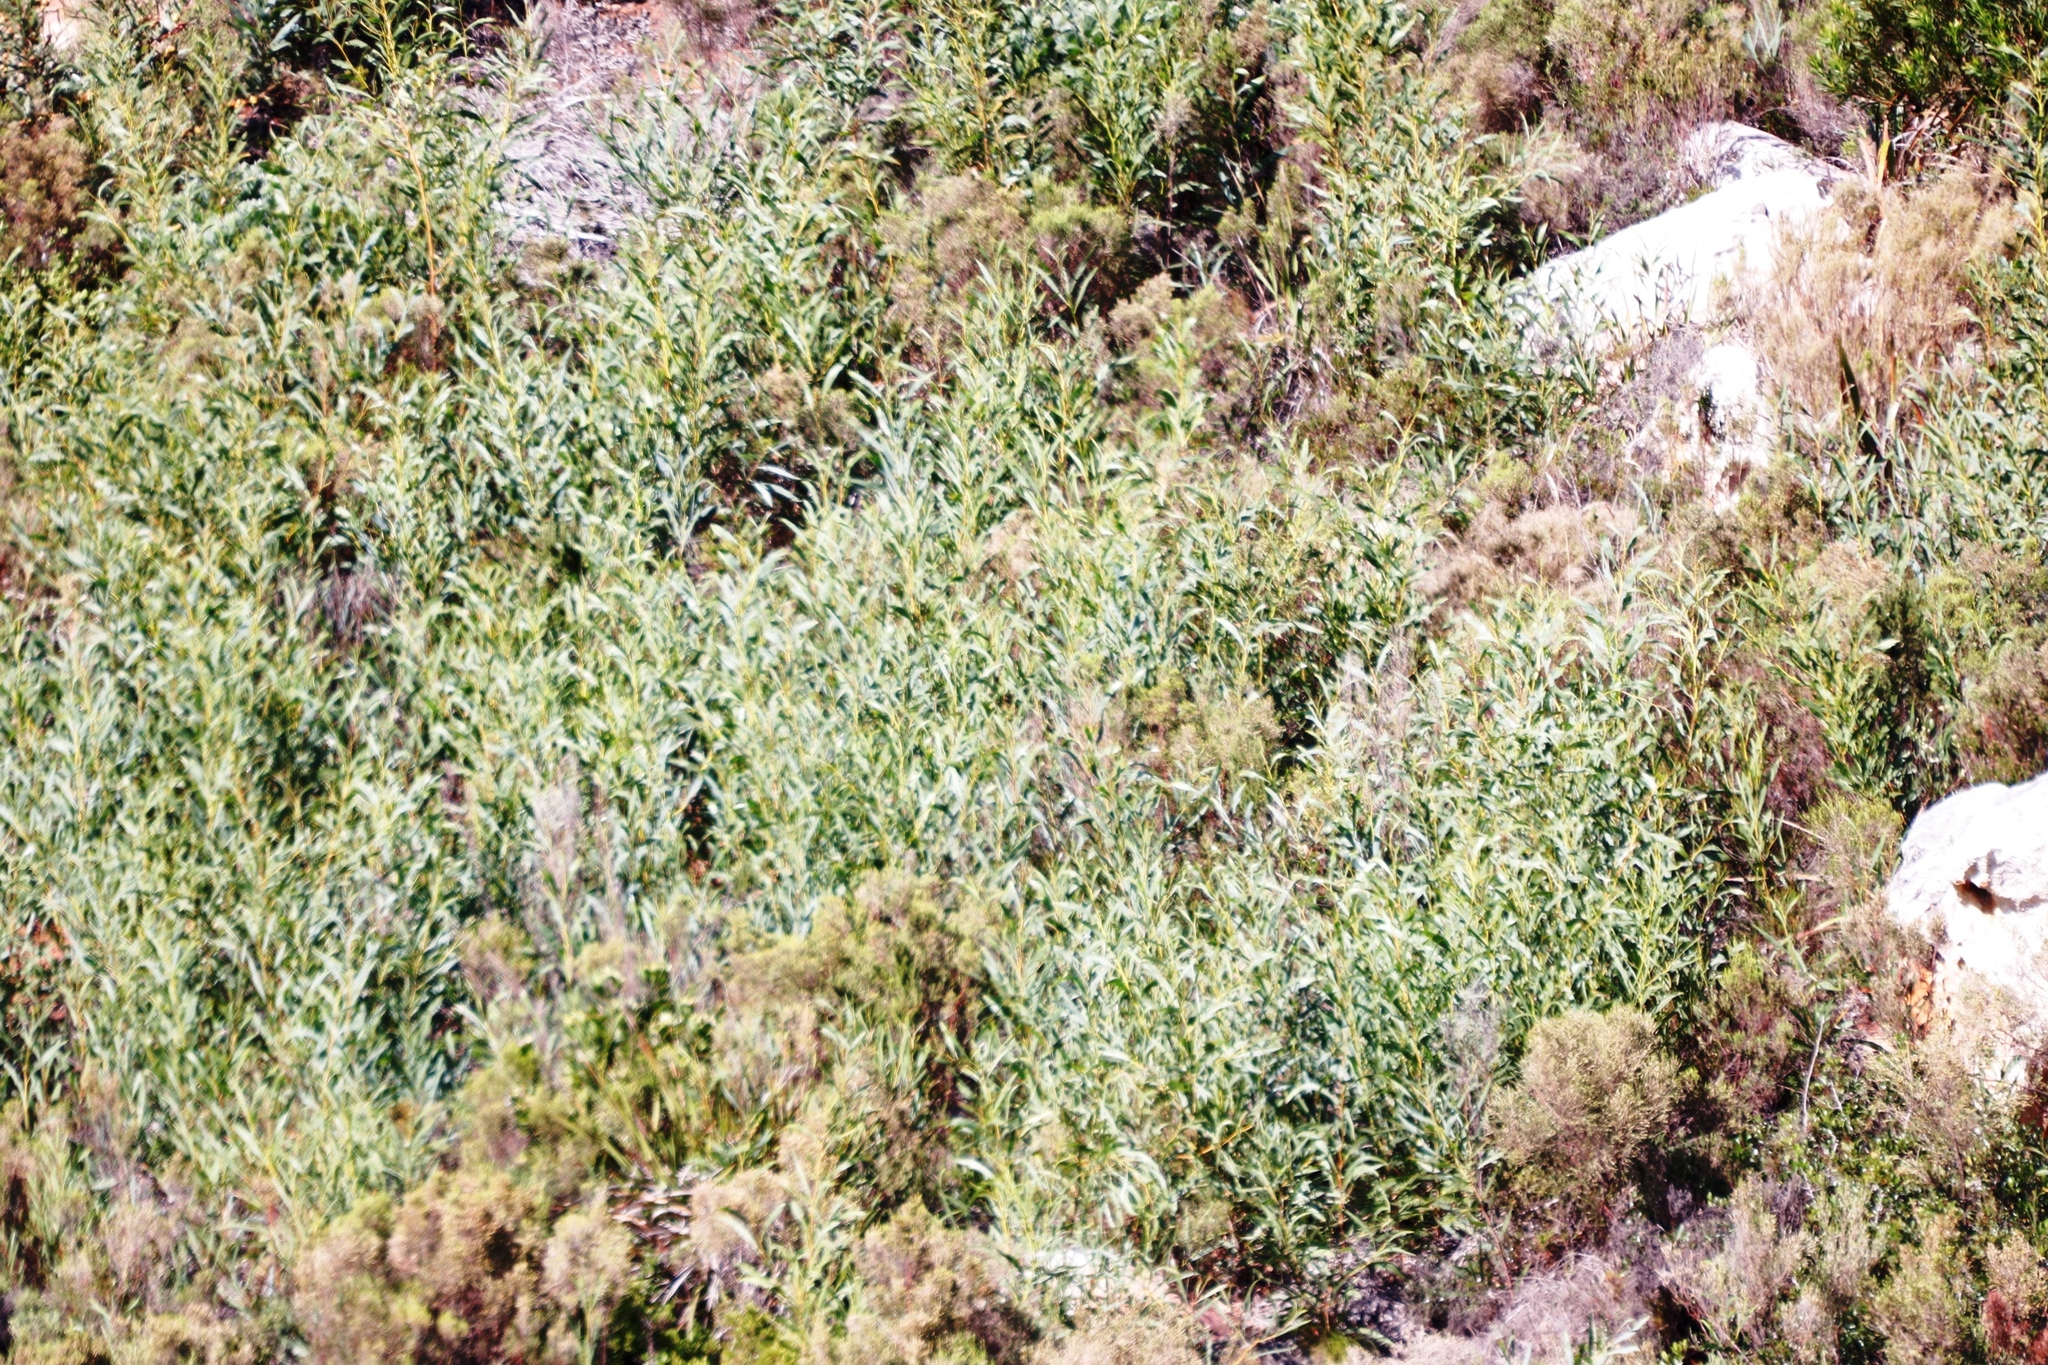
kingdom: Plantae
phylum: Tracheophyta
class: Magnoliopsida
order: Fabales
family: Fabaceae
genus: Acacia
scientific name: Acacia saligna
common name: Orange wattle
